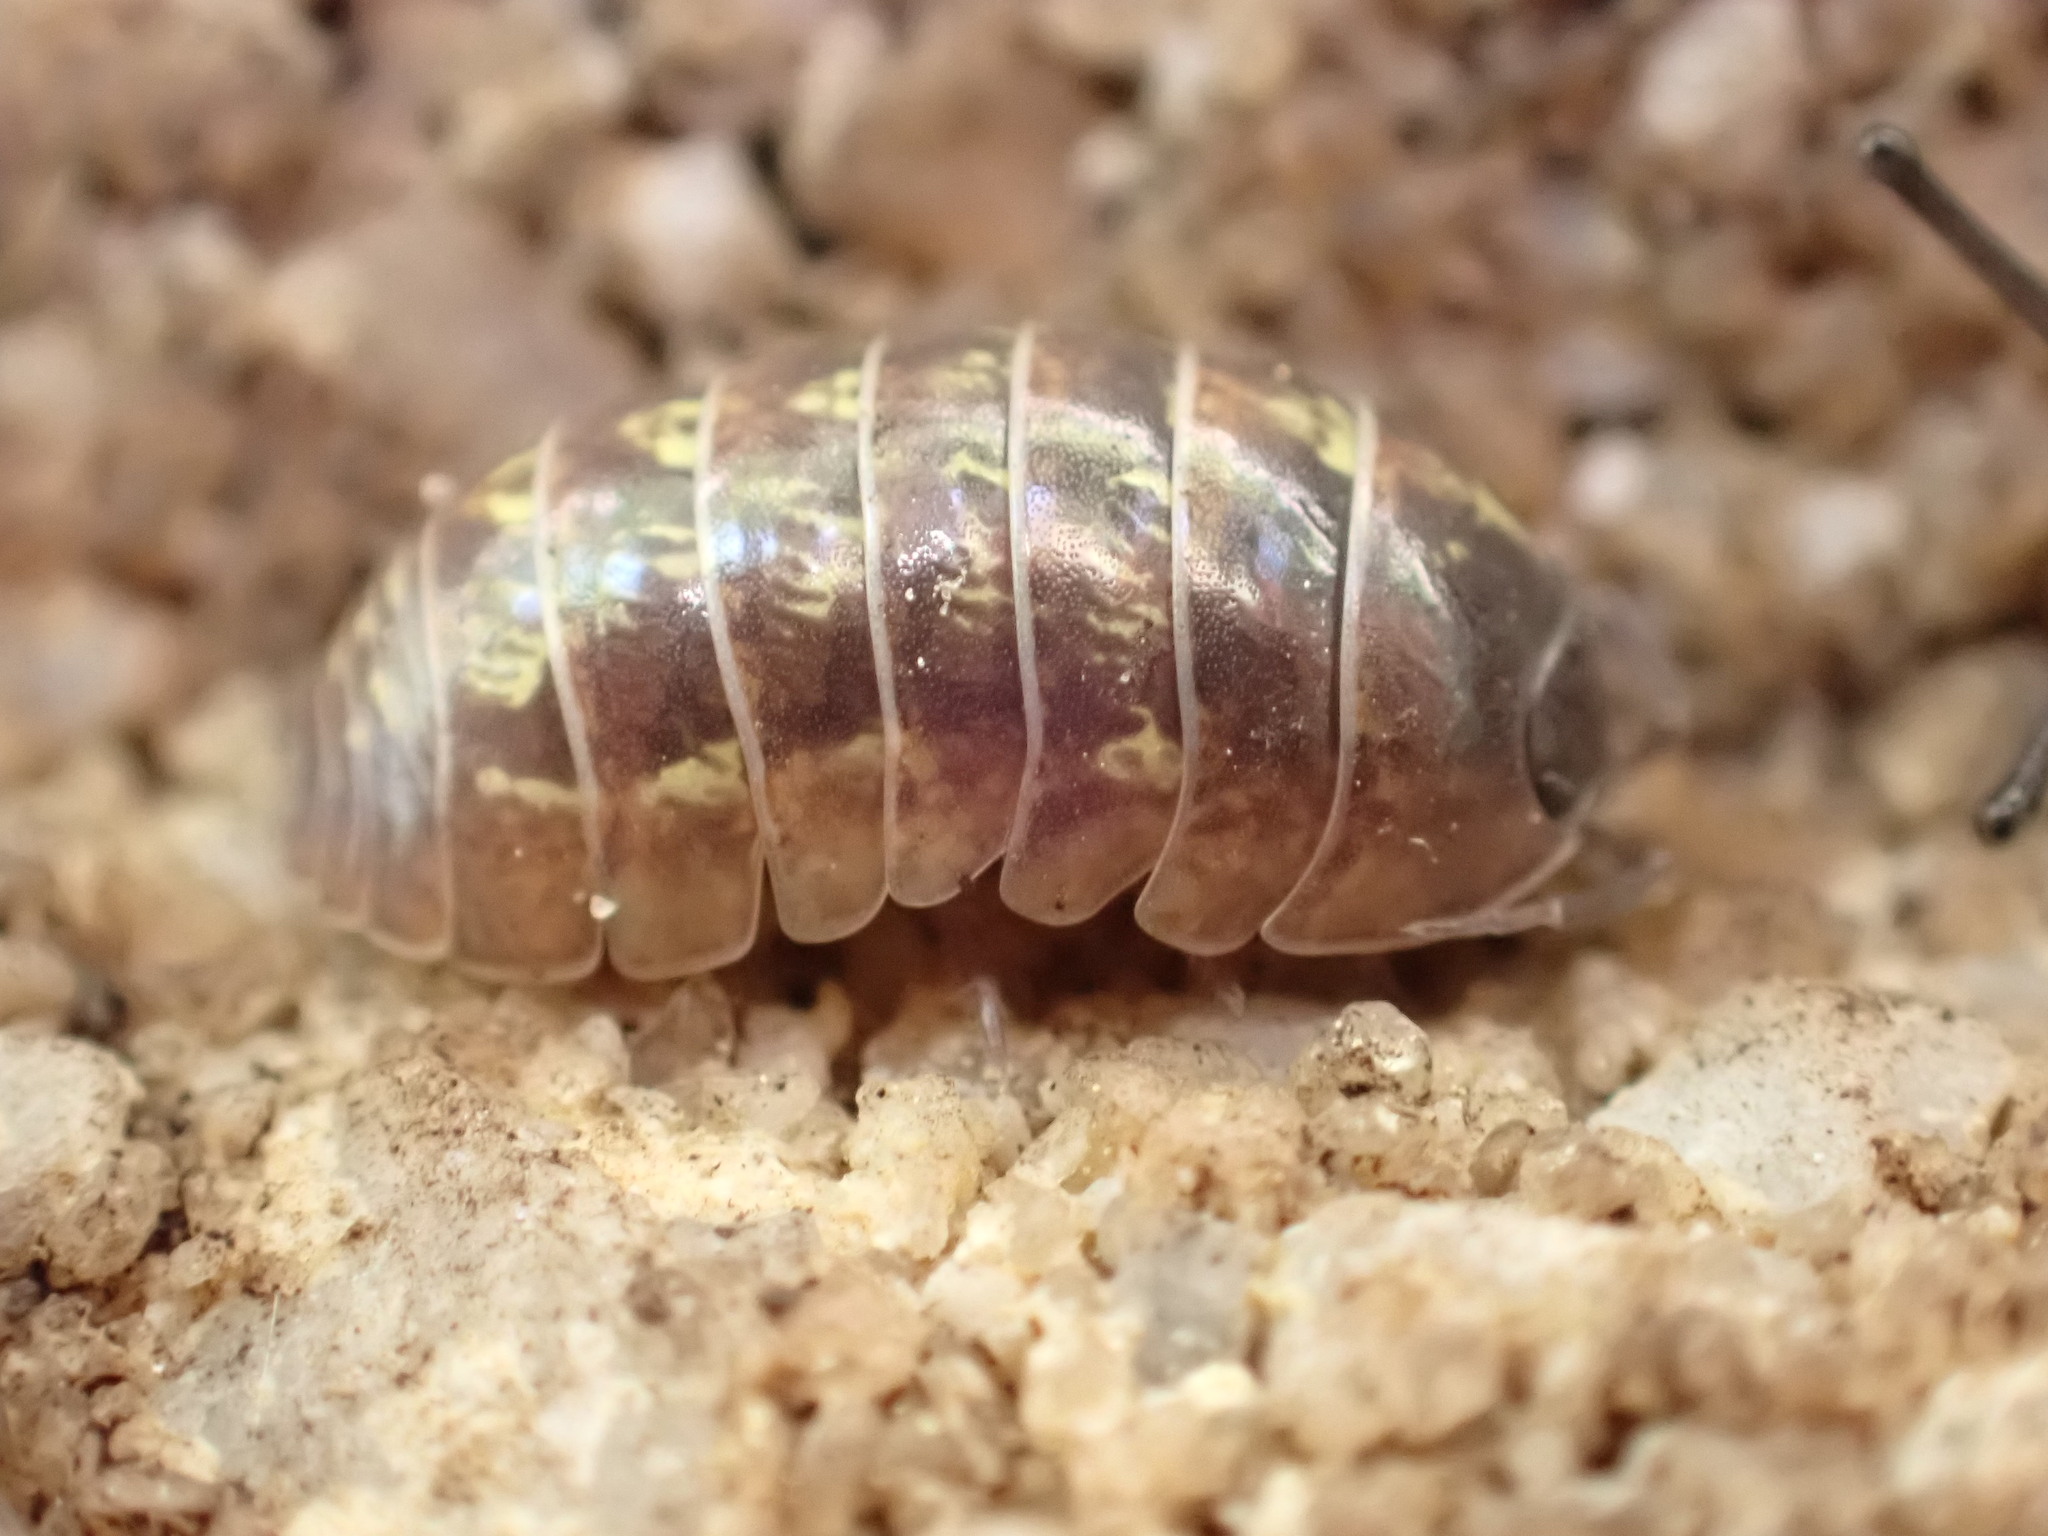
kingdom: Animalia
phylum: Arthropoda
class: Malacostraca
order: Isopoda
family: Armadillidiidae
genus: Armadillidium
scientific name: Armadillidium vulgare
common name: Common pill woodlouse
